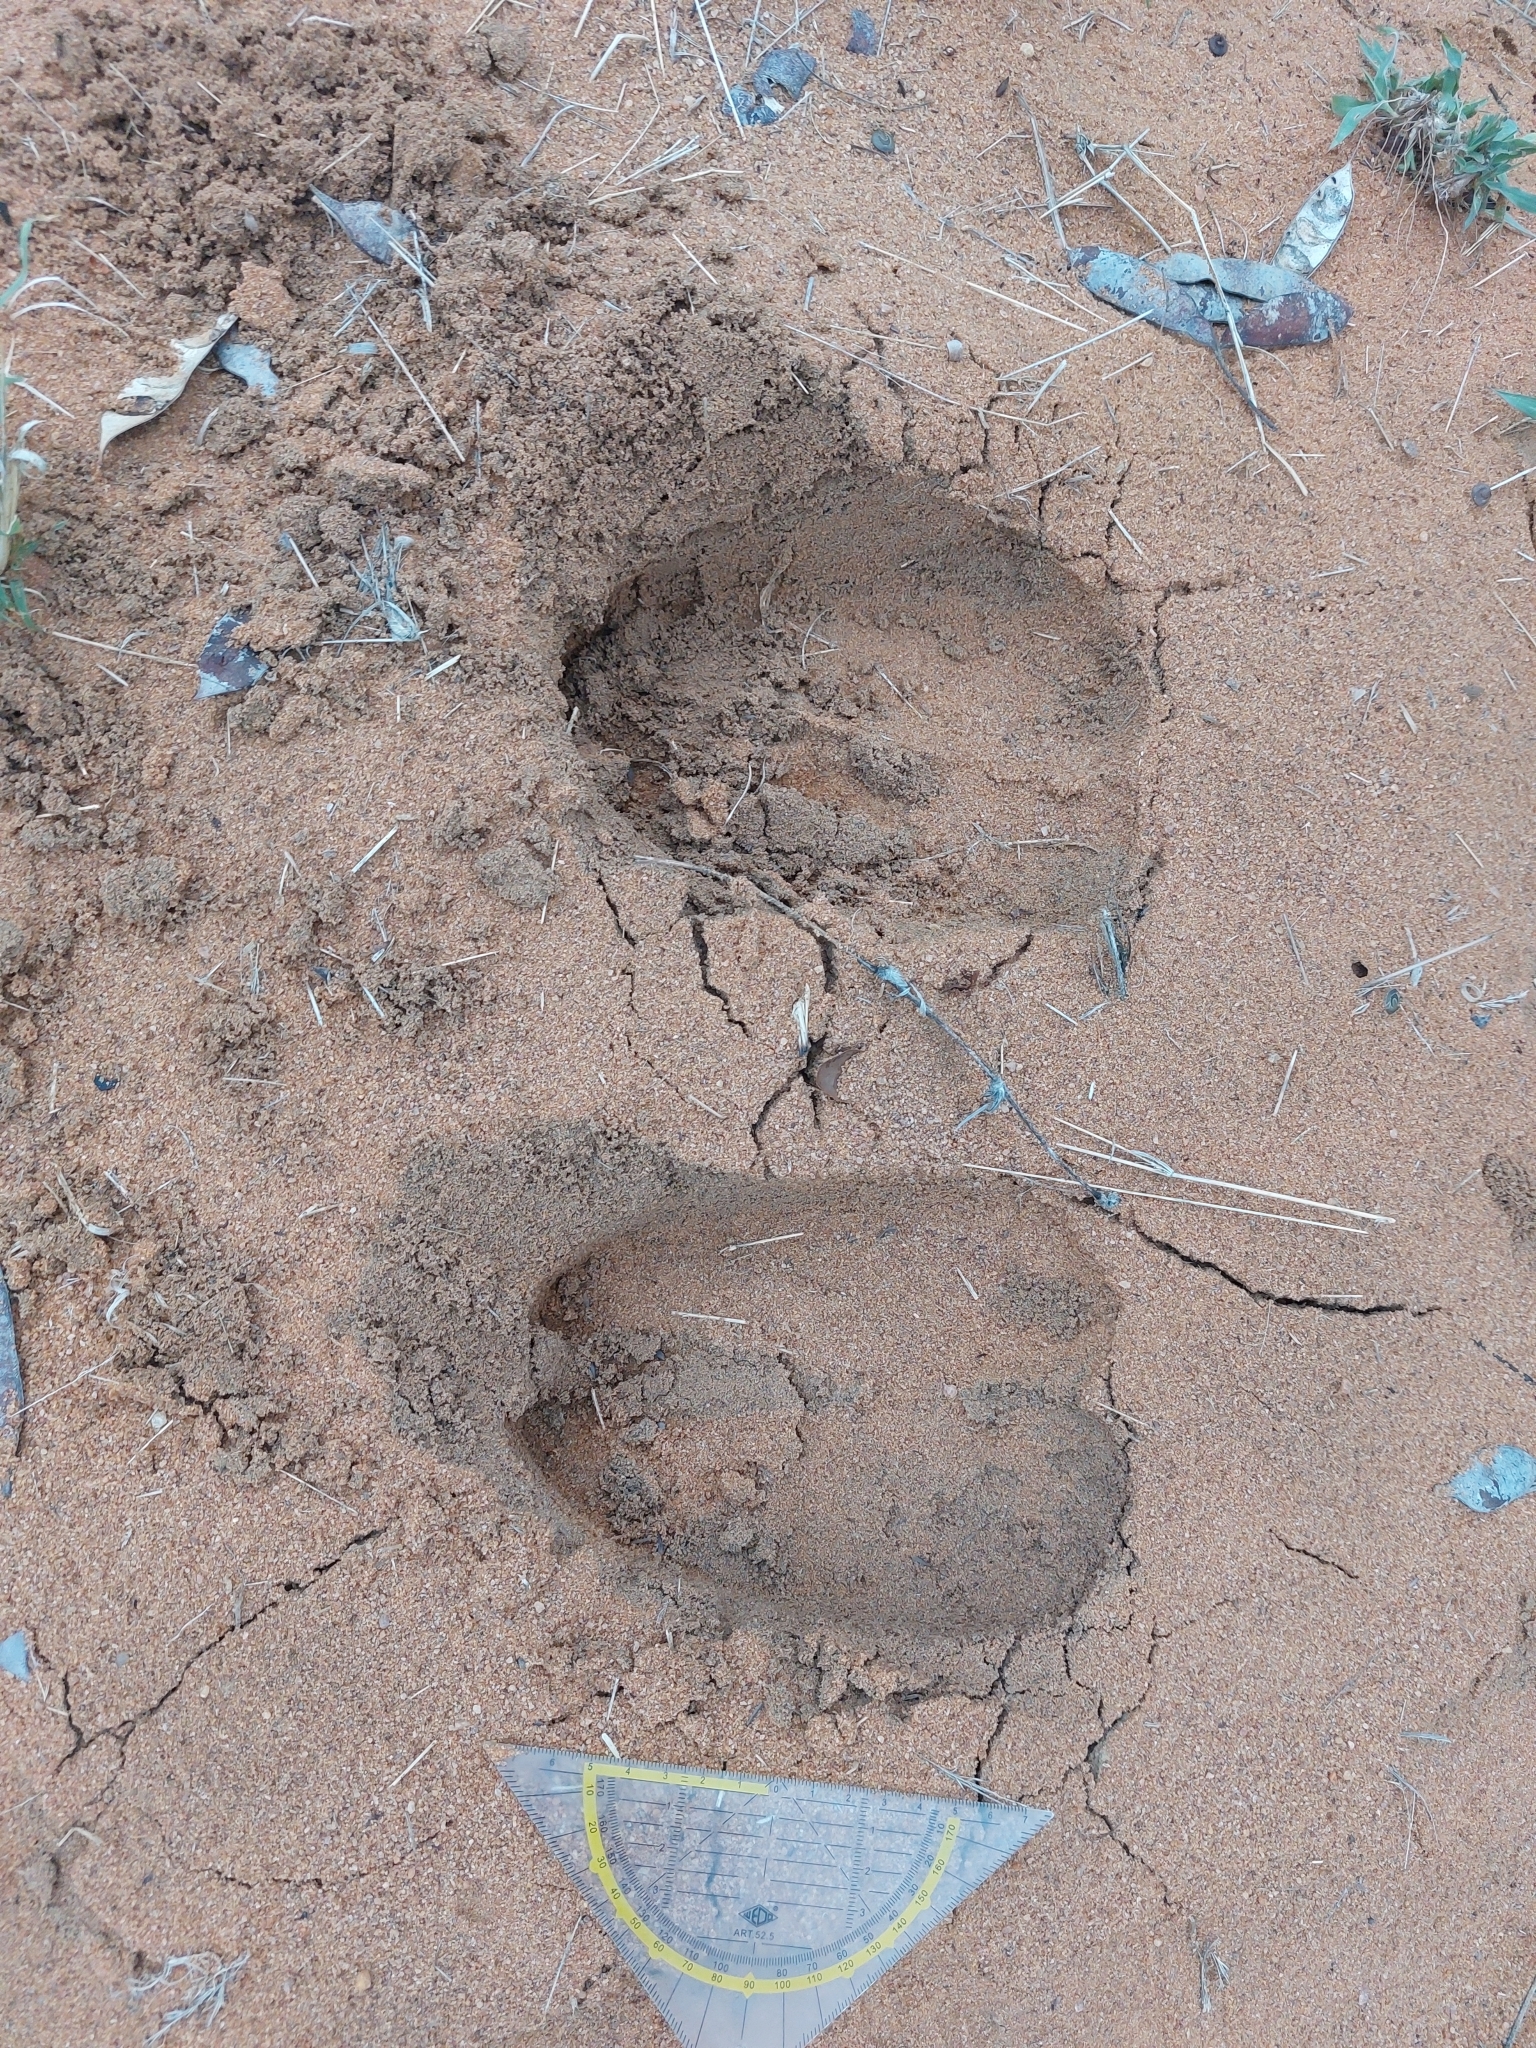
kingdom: Animalia
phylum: Chordata
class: Mammalia
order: Artiodactyla
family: Giraffidae
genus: Giraffa
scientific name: Giraffa giraffa
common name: Southern giraffe
